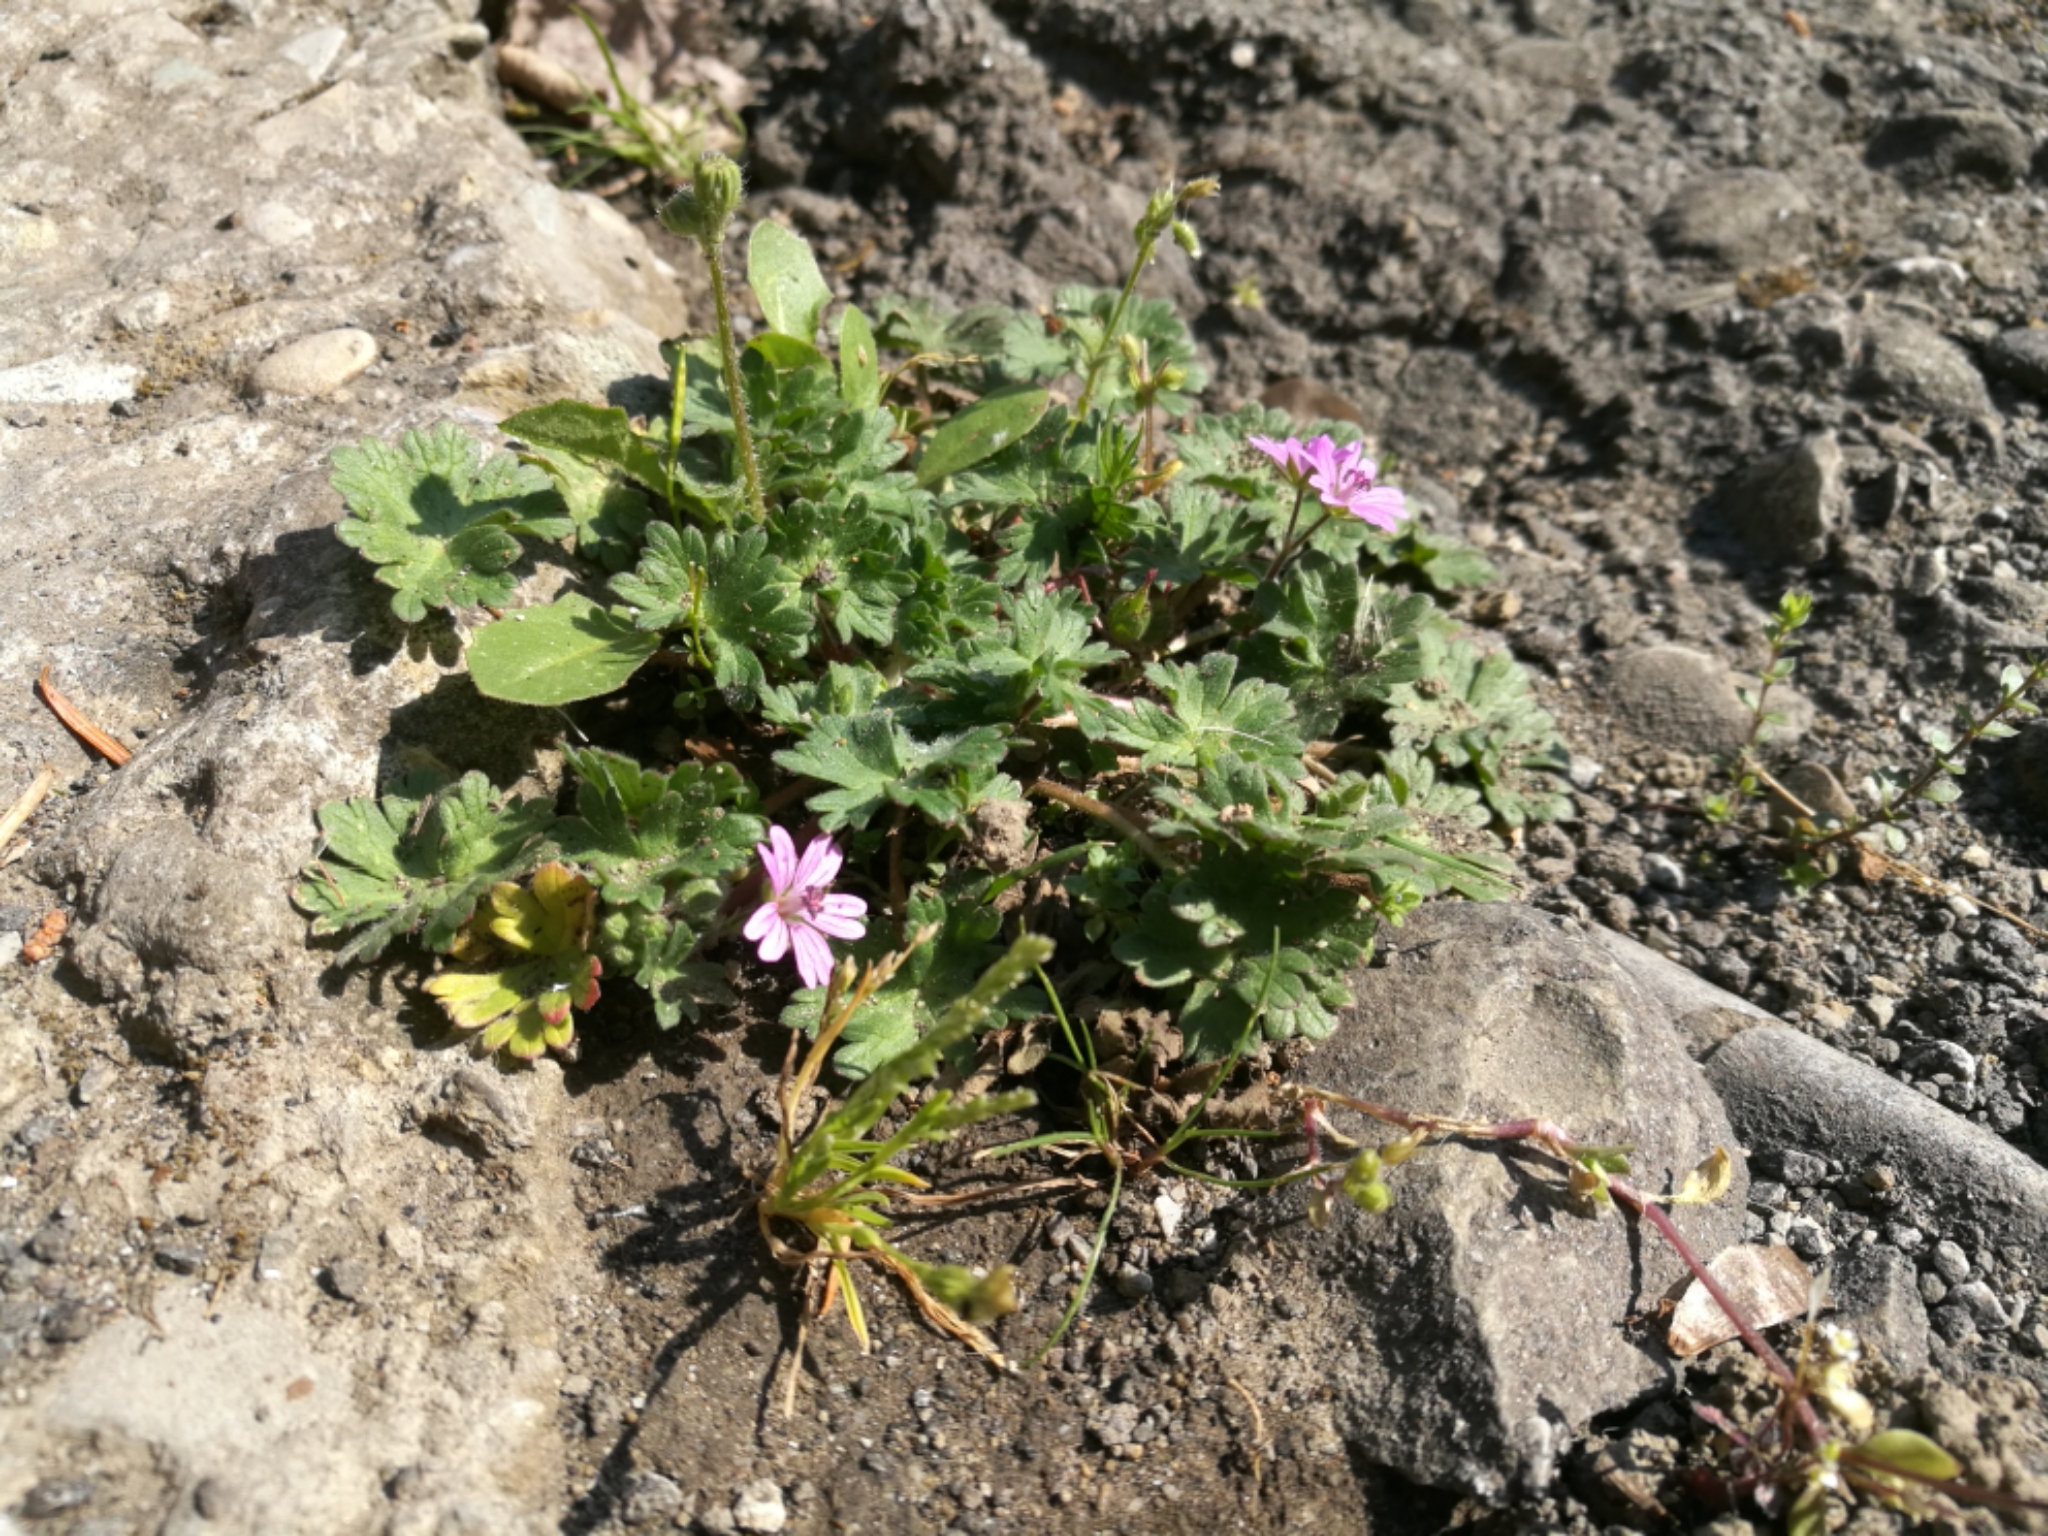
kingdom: Plantae
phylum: Tracheophyta
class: Magnoliopsida
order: Geraniales
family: Geraniaceae
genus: Geranium
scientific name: Geranium molle
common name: Dove's-foot crane's-bill
